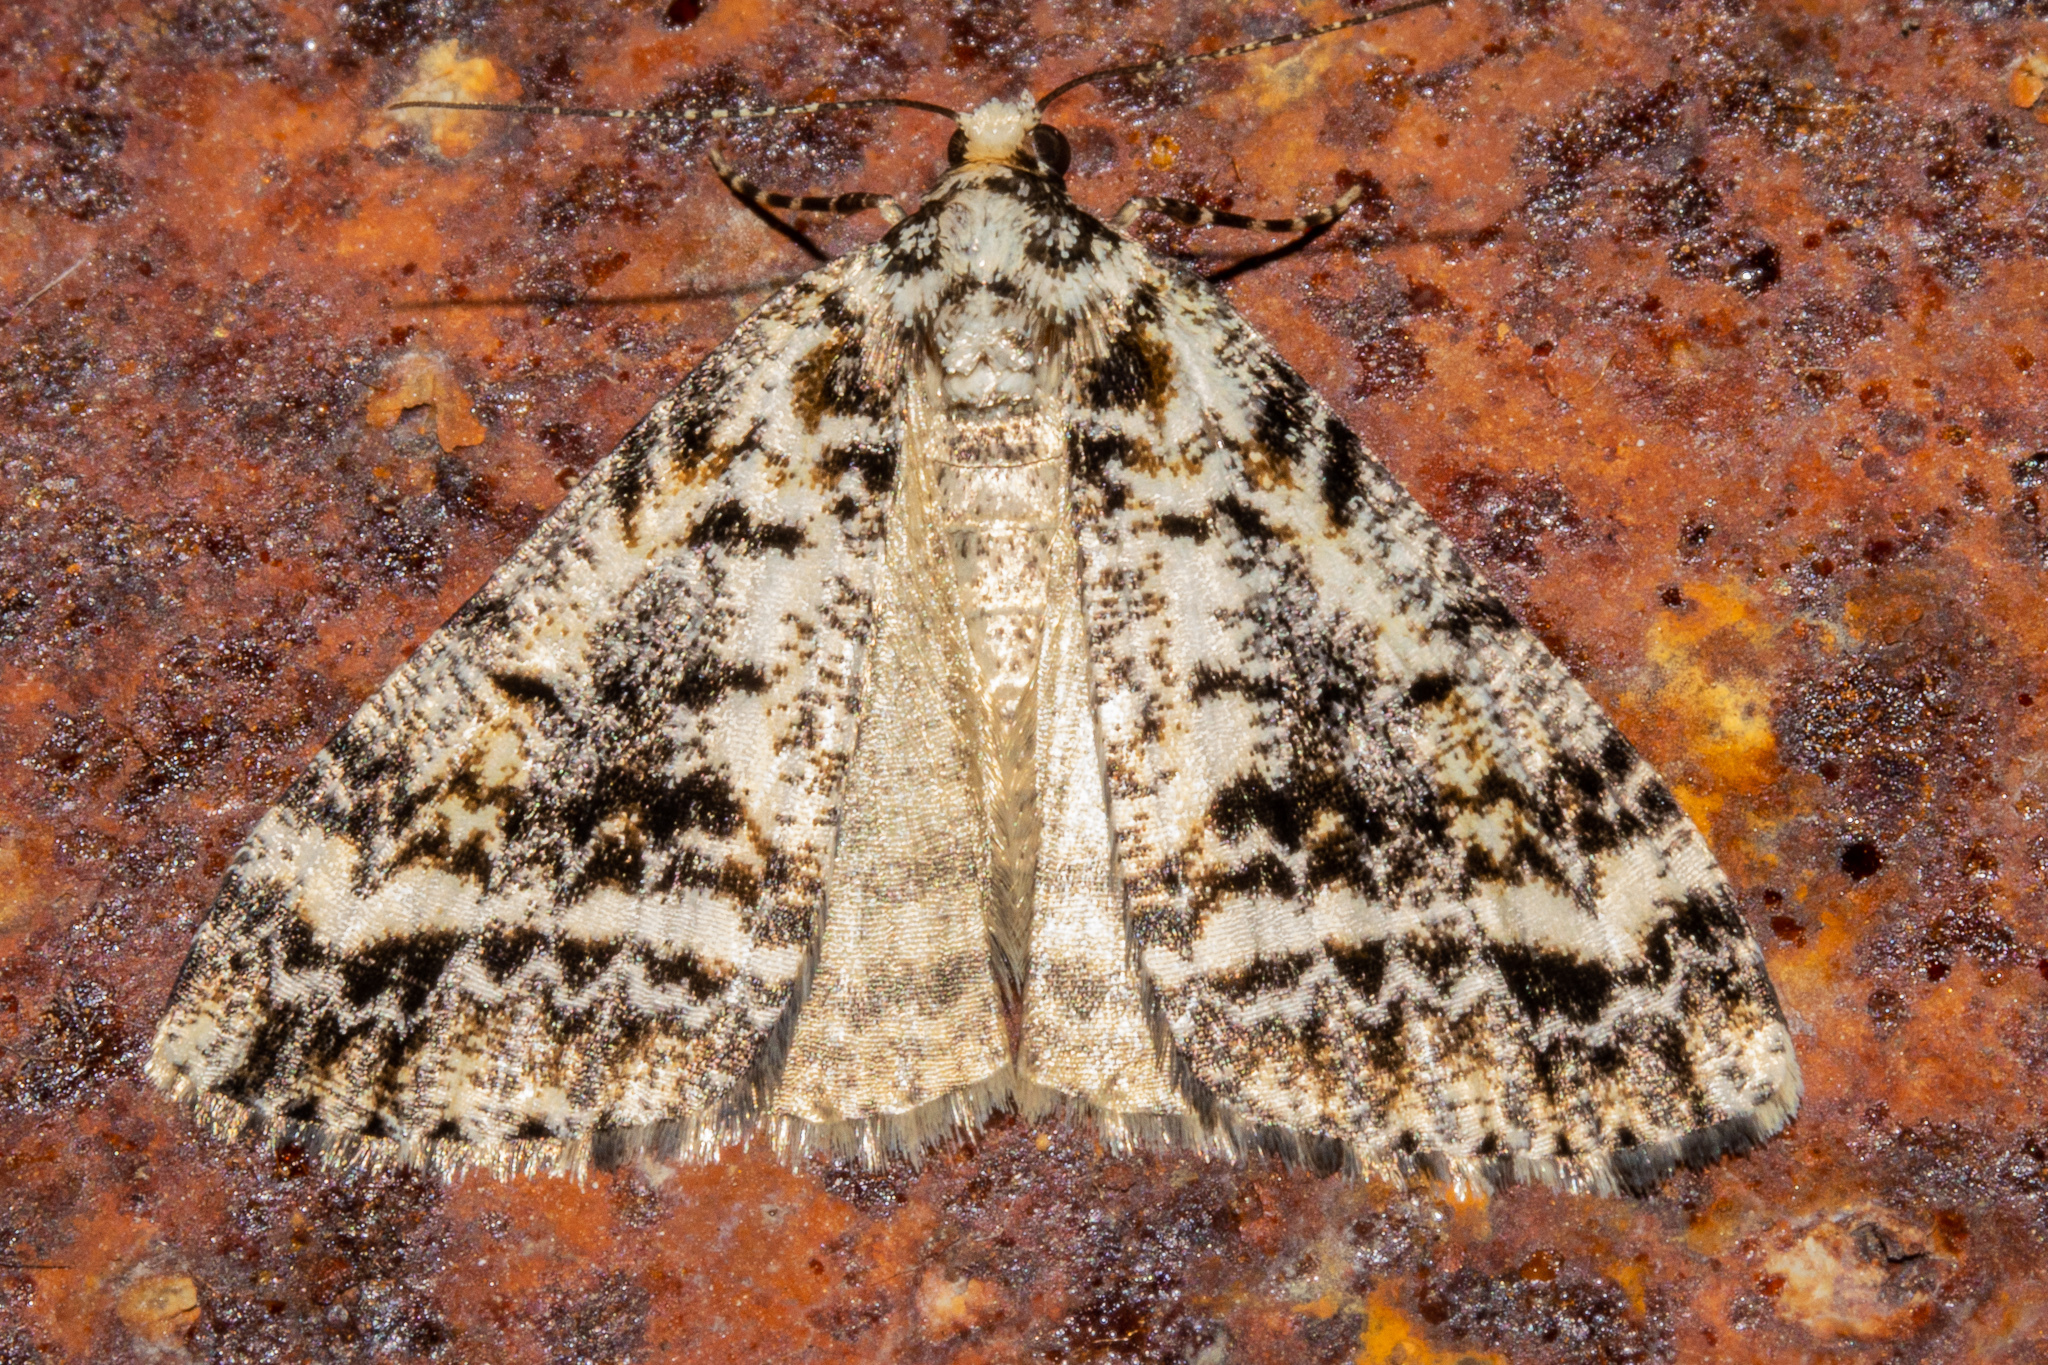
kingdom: Animalia
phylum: Arthropoda
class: Insecta
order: Lepidoptera
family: Geometridae
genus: Pseudocoremia
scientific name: Pseudocoremia leucelaea
